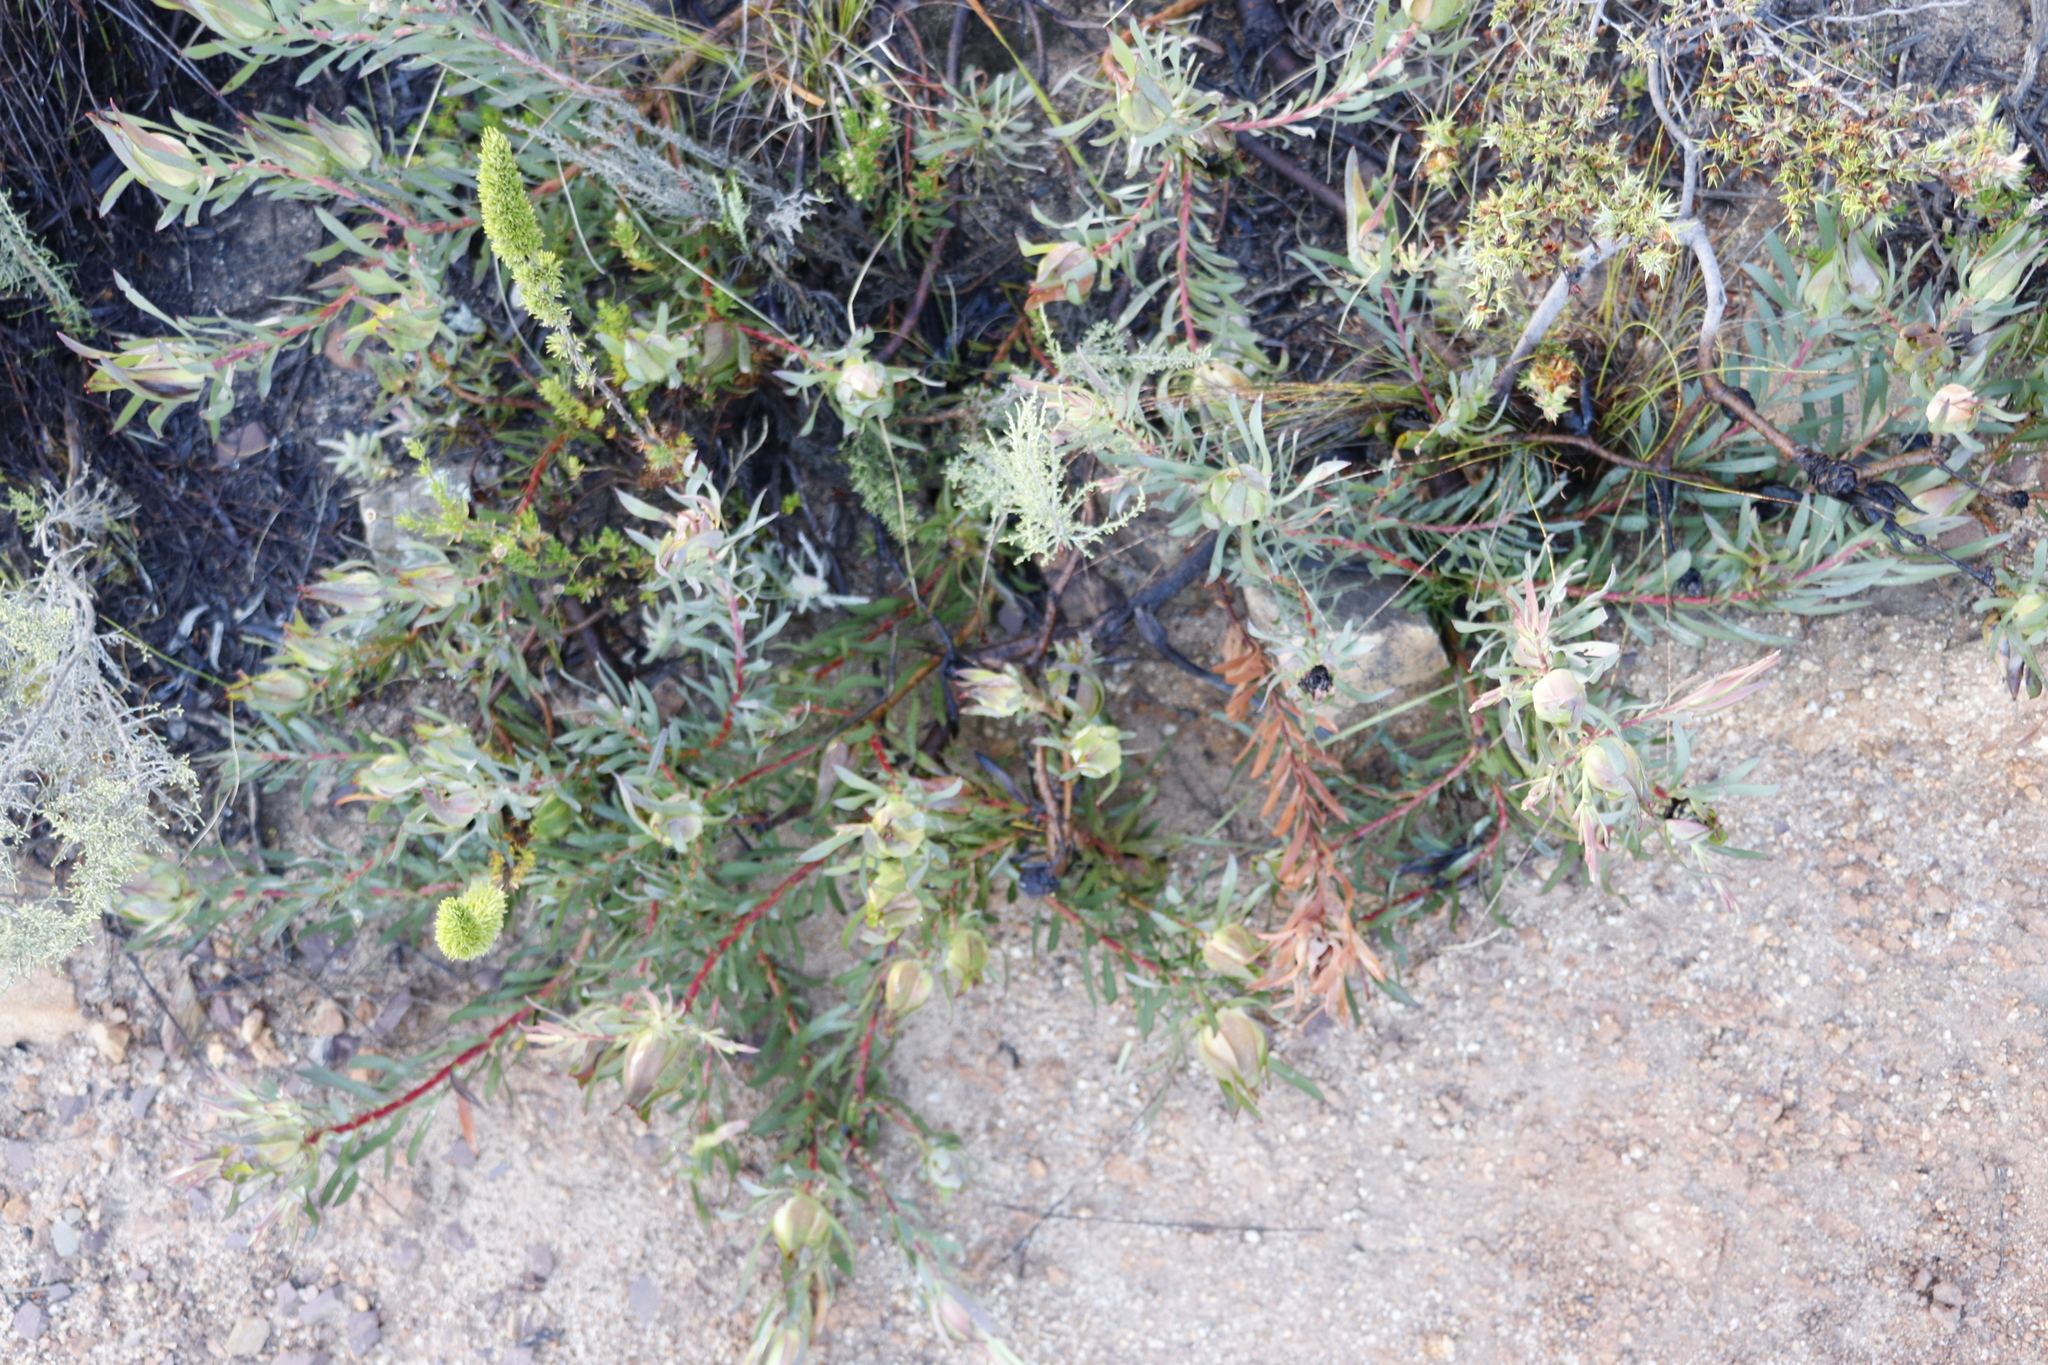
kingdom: Plantae
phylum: Tracheophyta
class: Magnoliopsida
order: Proteales
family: Proteaceae
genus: Leucadendron
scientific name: Leucadendron salignum
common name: Common sunshine conebush
